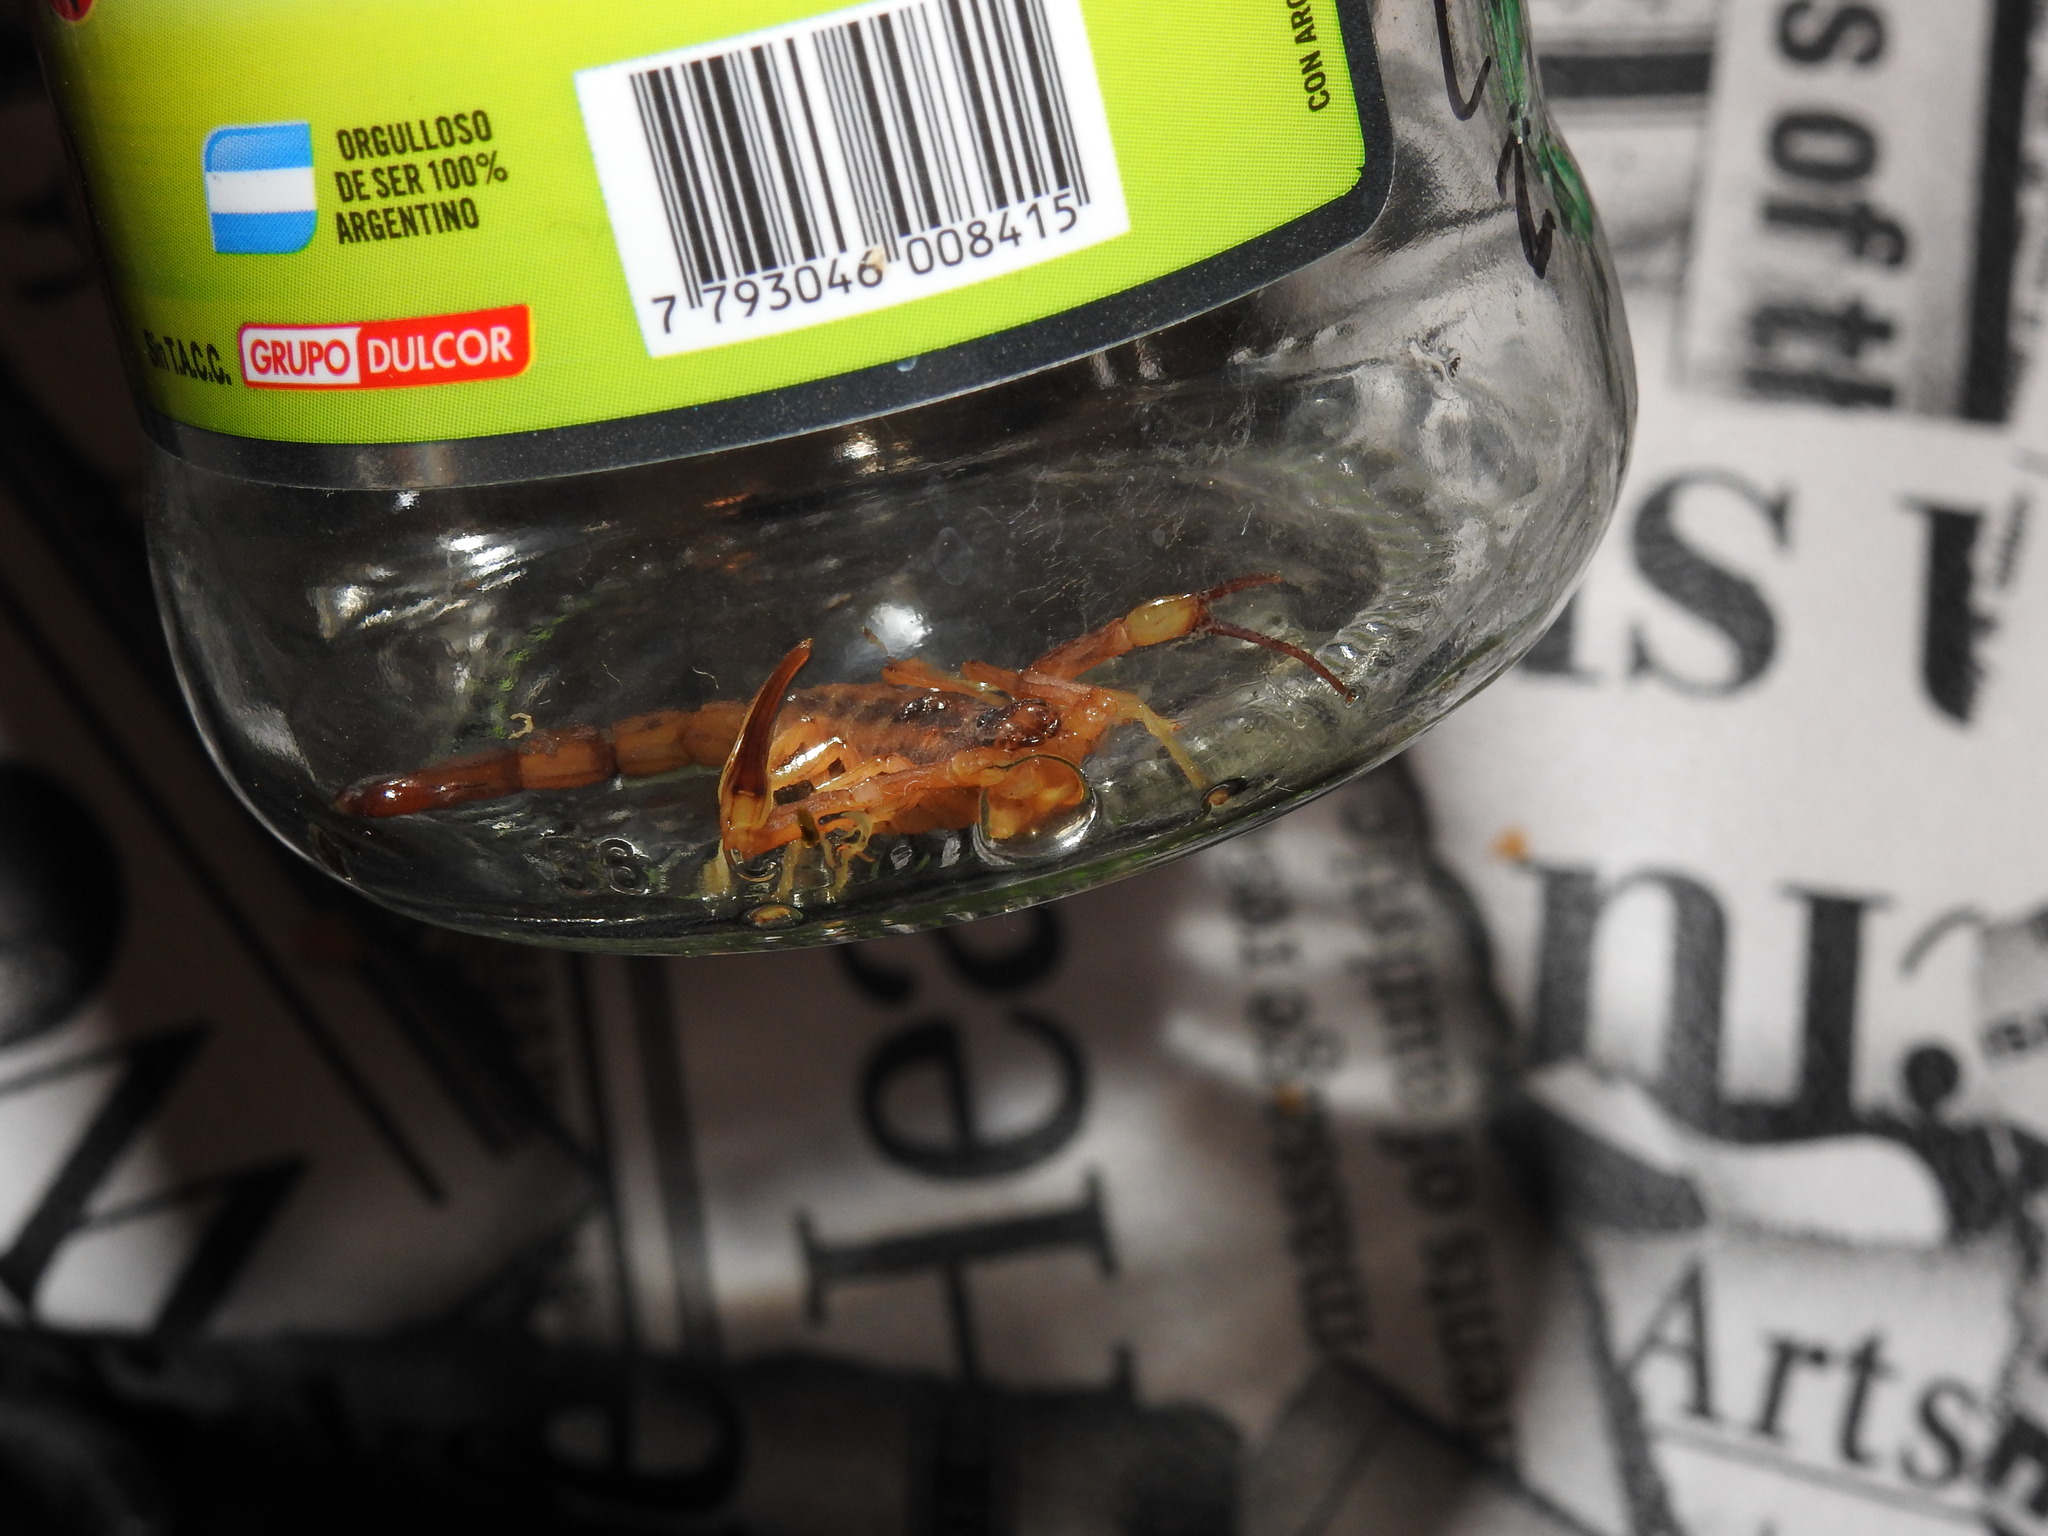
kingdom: Animalia
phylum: Arthropoda
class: Arachnida
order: Scorpiones
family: Buthidae
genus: Tityus
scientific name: Tityus carrilloi
